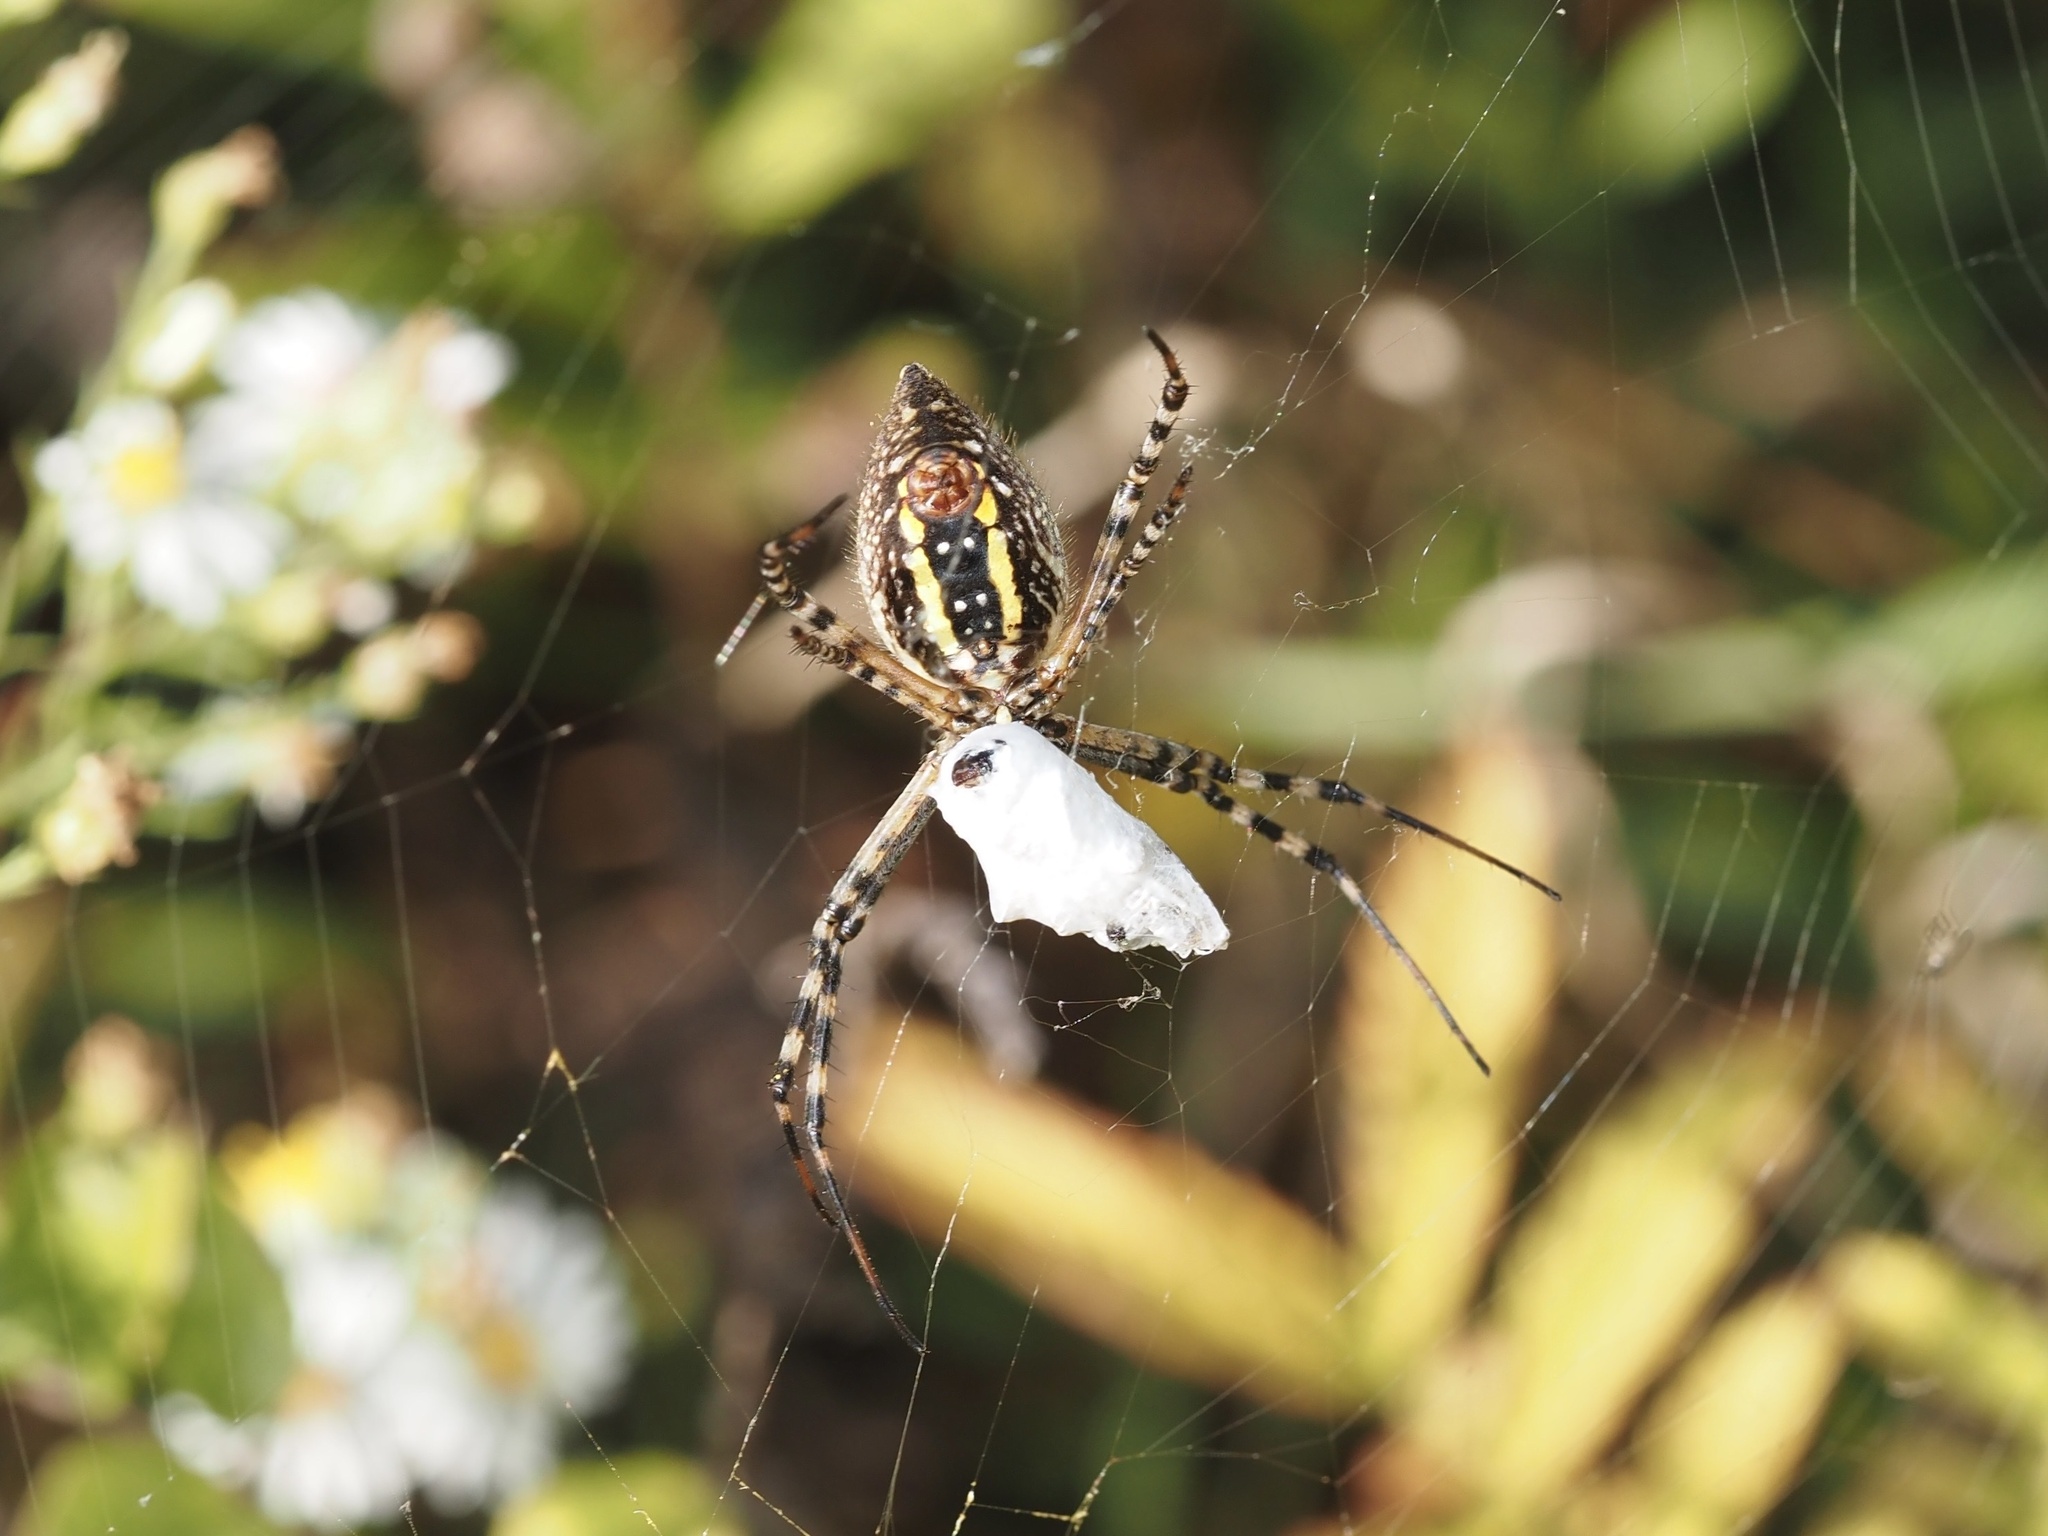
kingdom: Animalia
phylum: Arthropoda
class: Arachnida
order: Araneae
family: Araneidae
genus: Argiope
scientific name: Argiope trifasciata
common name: Banded garden spider
